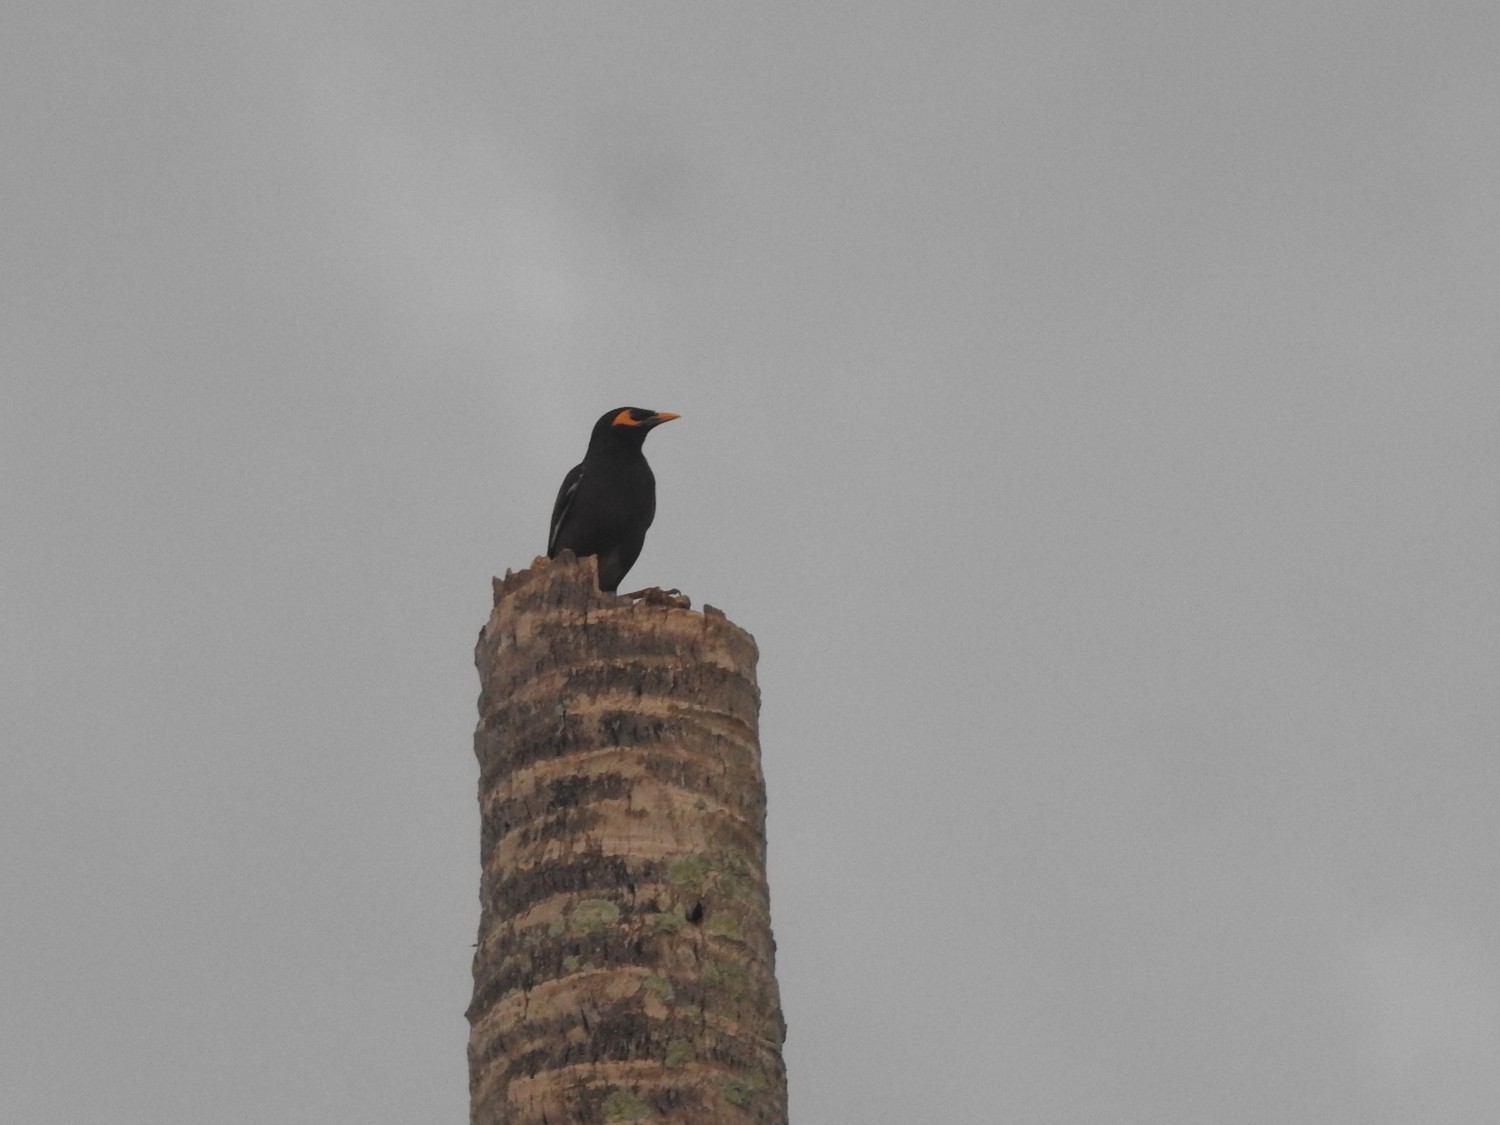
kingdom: Animalia
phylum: Chordata
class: Aves
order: Passeriformes
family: Sturnidae
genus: Acridotheres
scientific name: Acridotheres tristis
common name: Common myna
